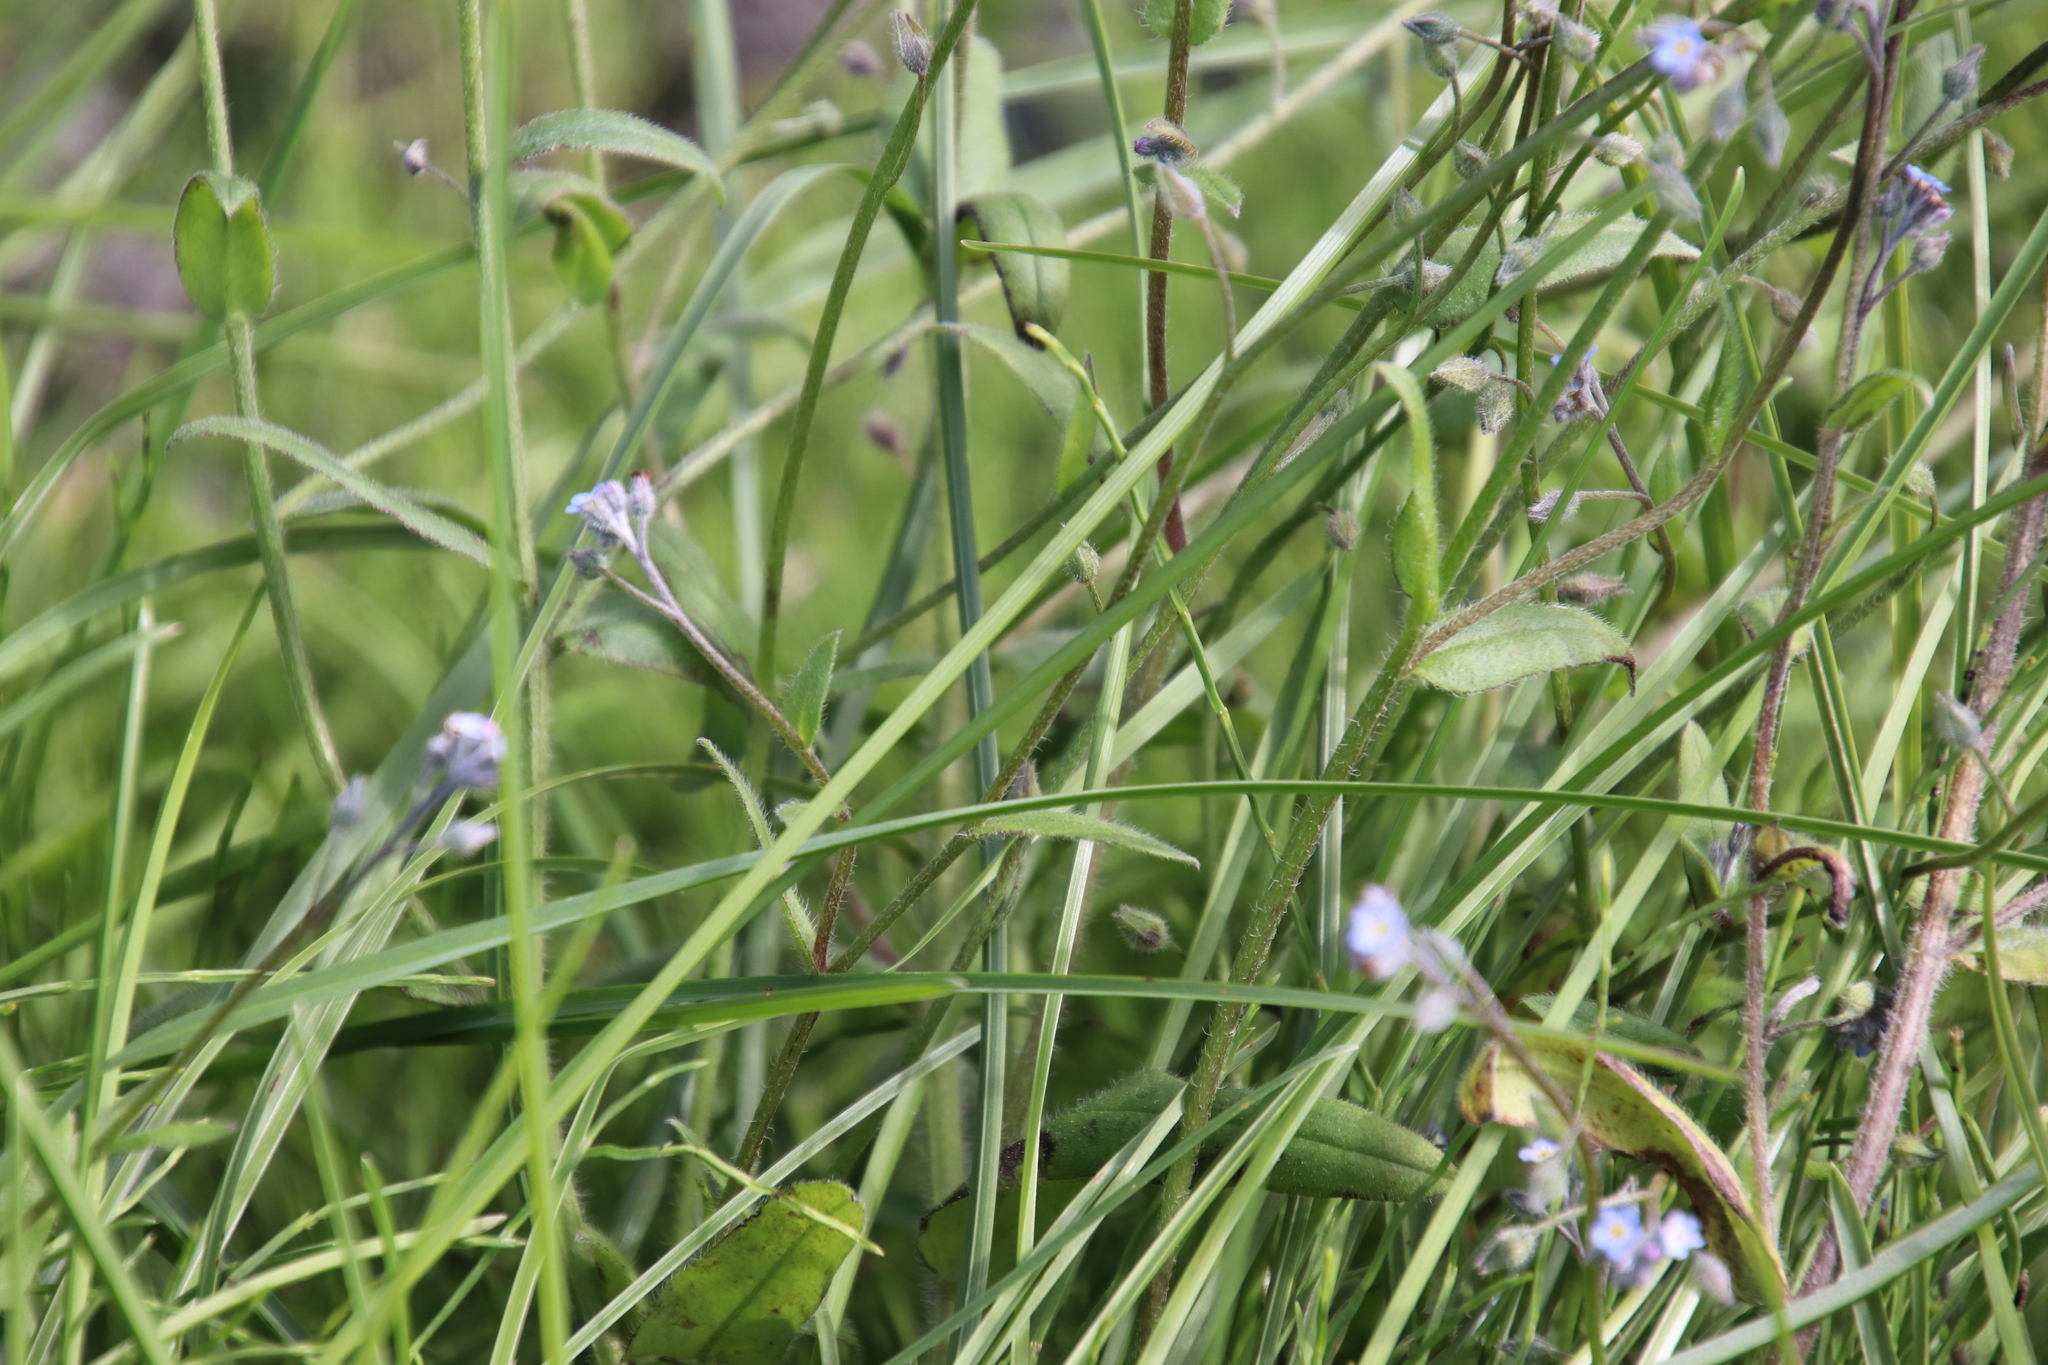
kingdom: Plantae
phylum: Tracheophyta
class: Magnoliopsida
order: Boraginales
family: Boraginaceae
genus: Myosotis
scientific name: Myosotis arvensis
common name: Field forget-me-not
